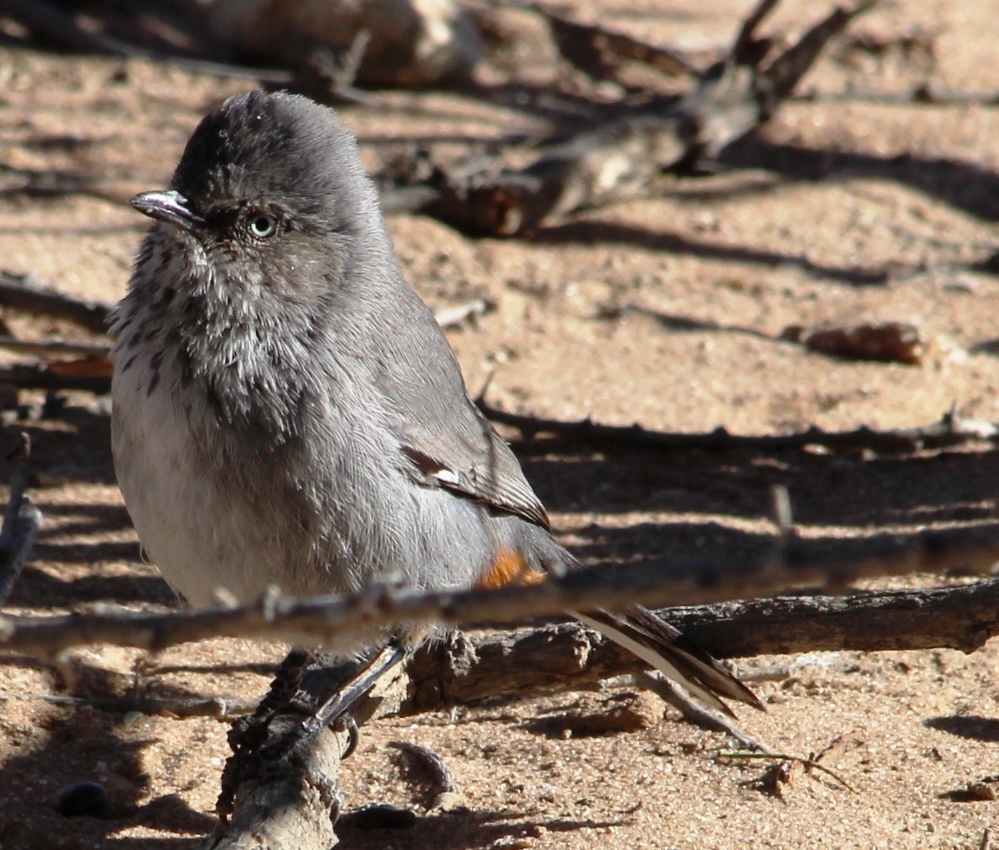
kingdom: Animalia
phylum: Chordata
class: Aves
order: Passeriformes
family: Sylviidae
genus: Sylvia
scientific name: Sylvia subcaerulea
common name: Chestnut-vented warbler
